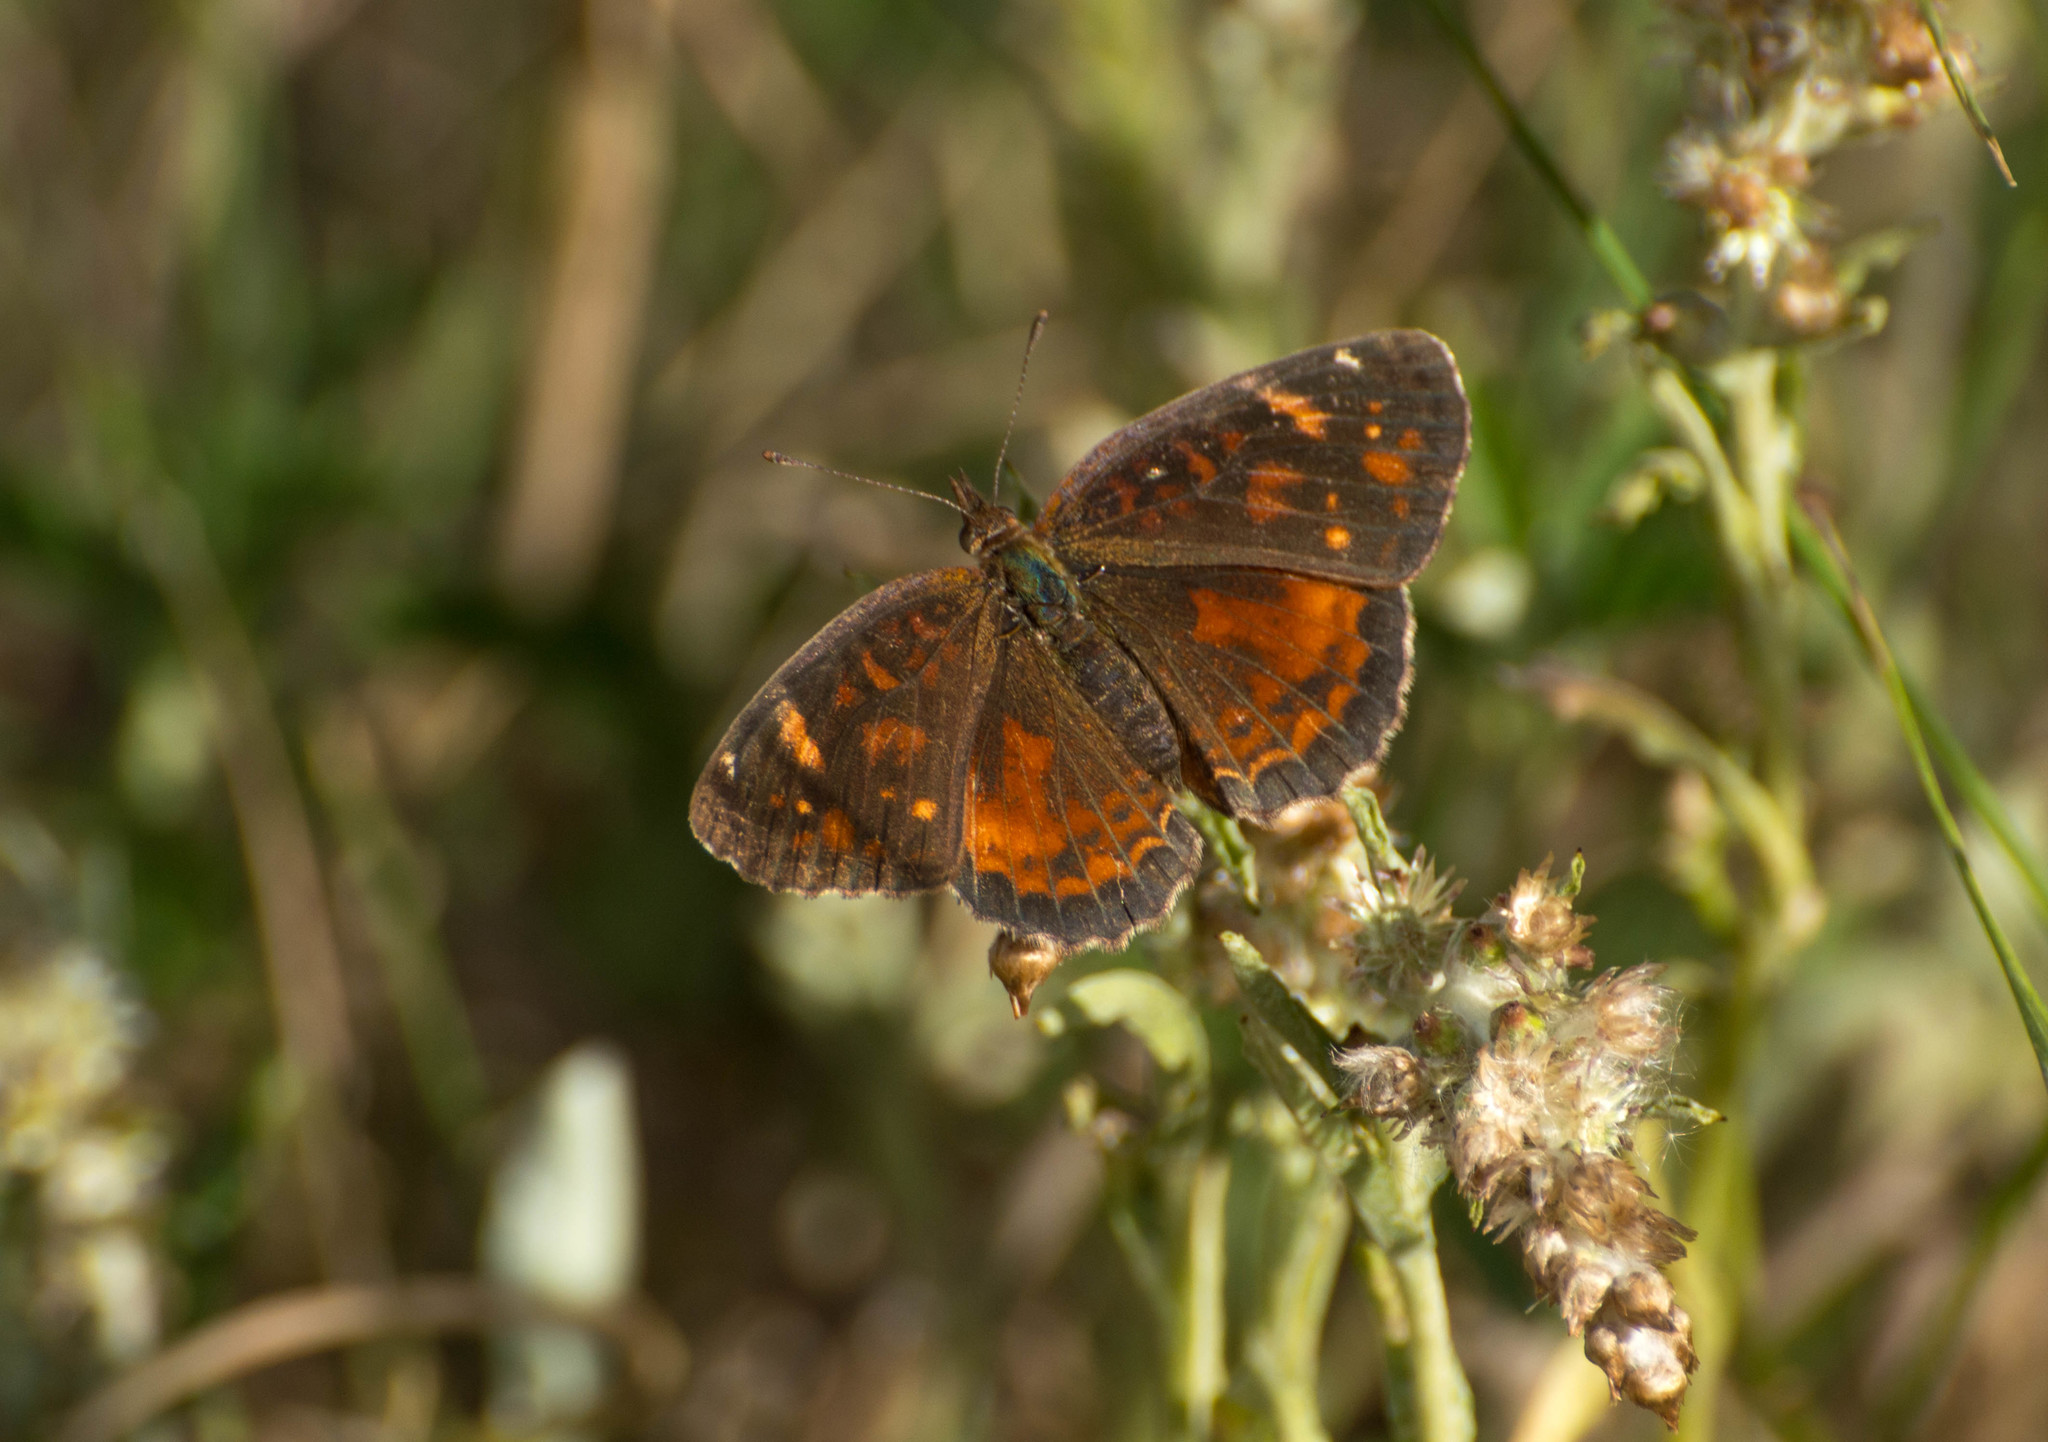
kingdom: Animalia
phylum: Arthropoda
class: Insecta
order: Lepidoptera
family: Nymphalidae
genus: Ortilia
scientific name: Ortilia velica
